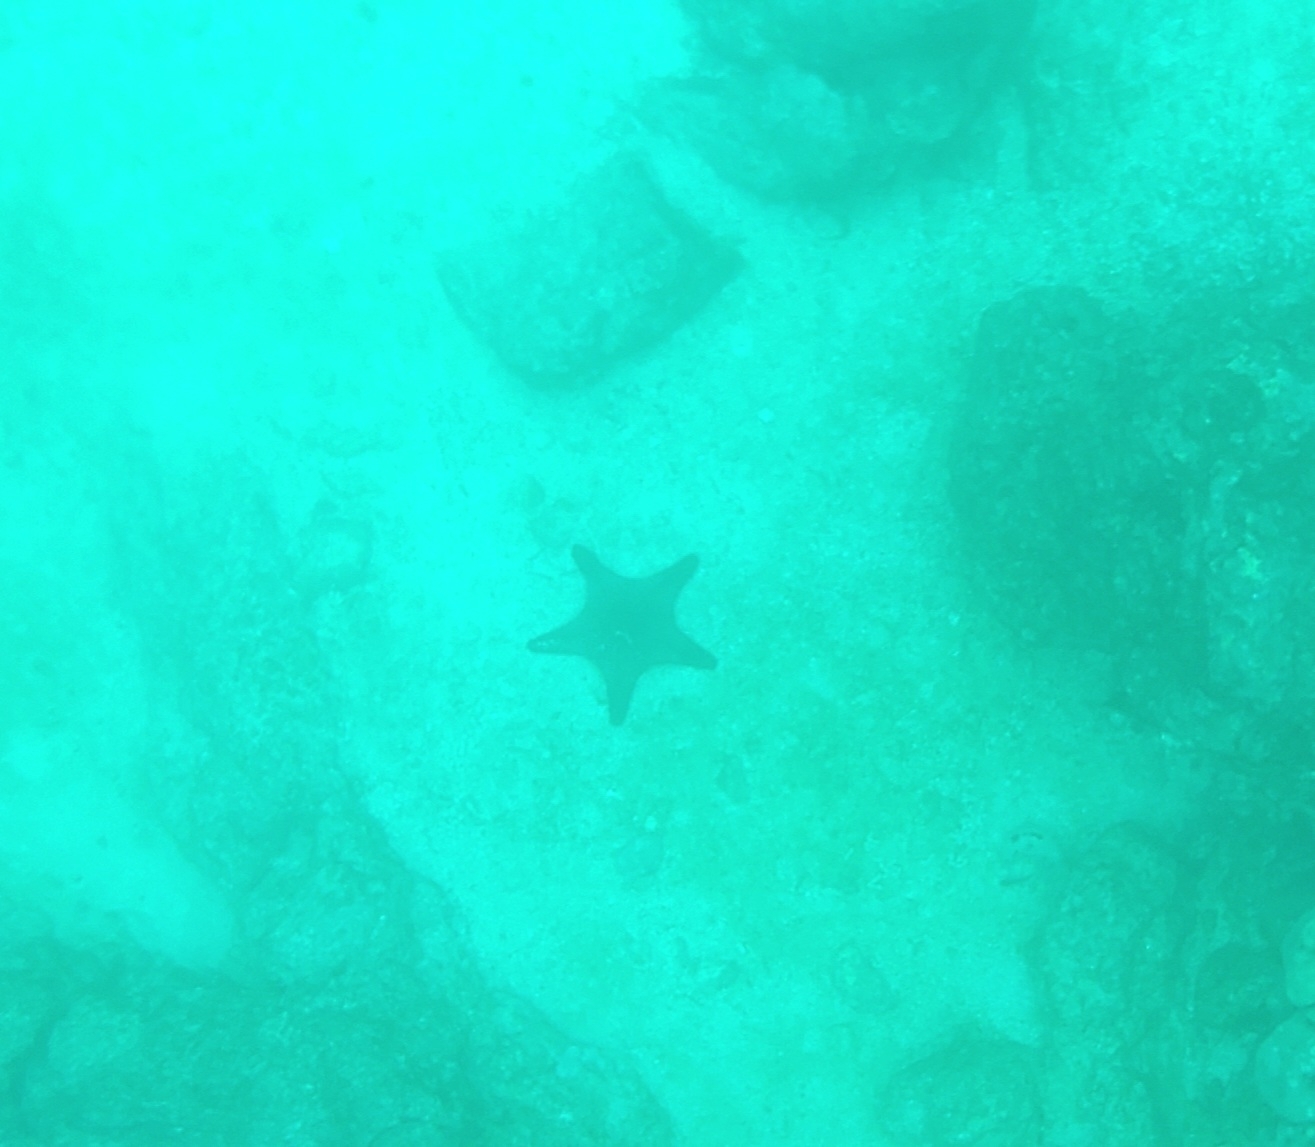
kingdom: Animalia
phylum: Echinodermata
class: Asteroidea
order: Valvatida
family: Oreasteridae
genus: Pentaceraster
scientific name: Pentaceraster cumingi
